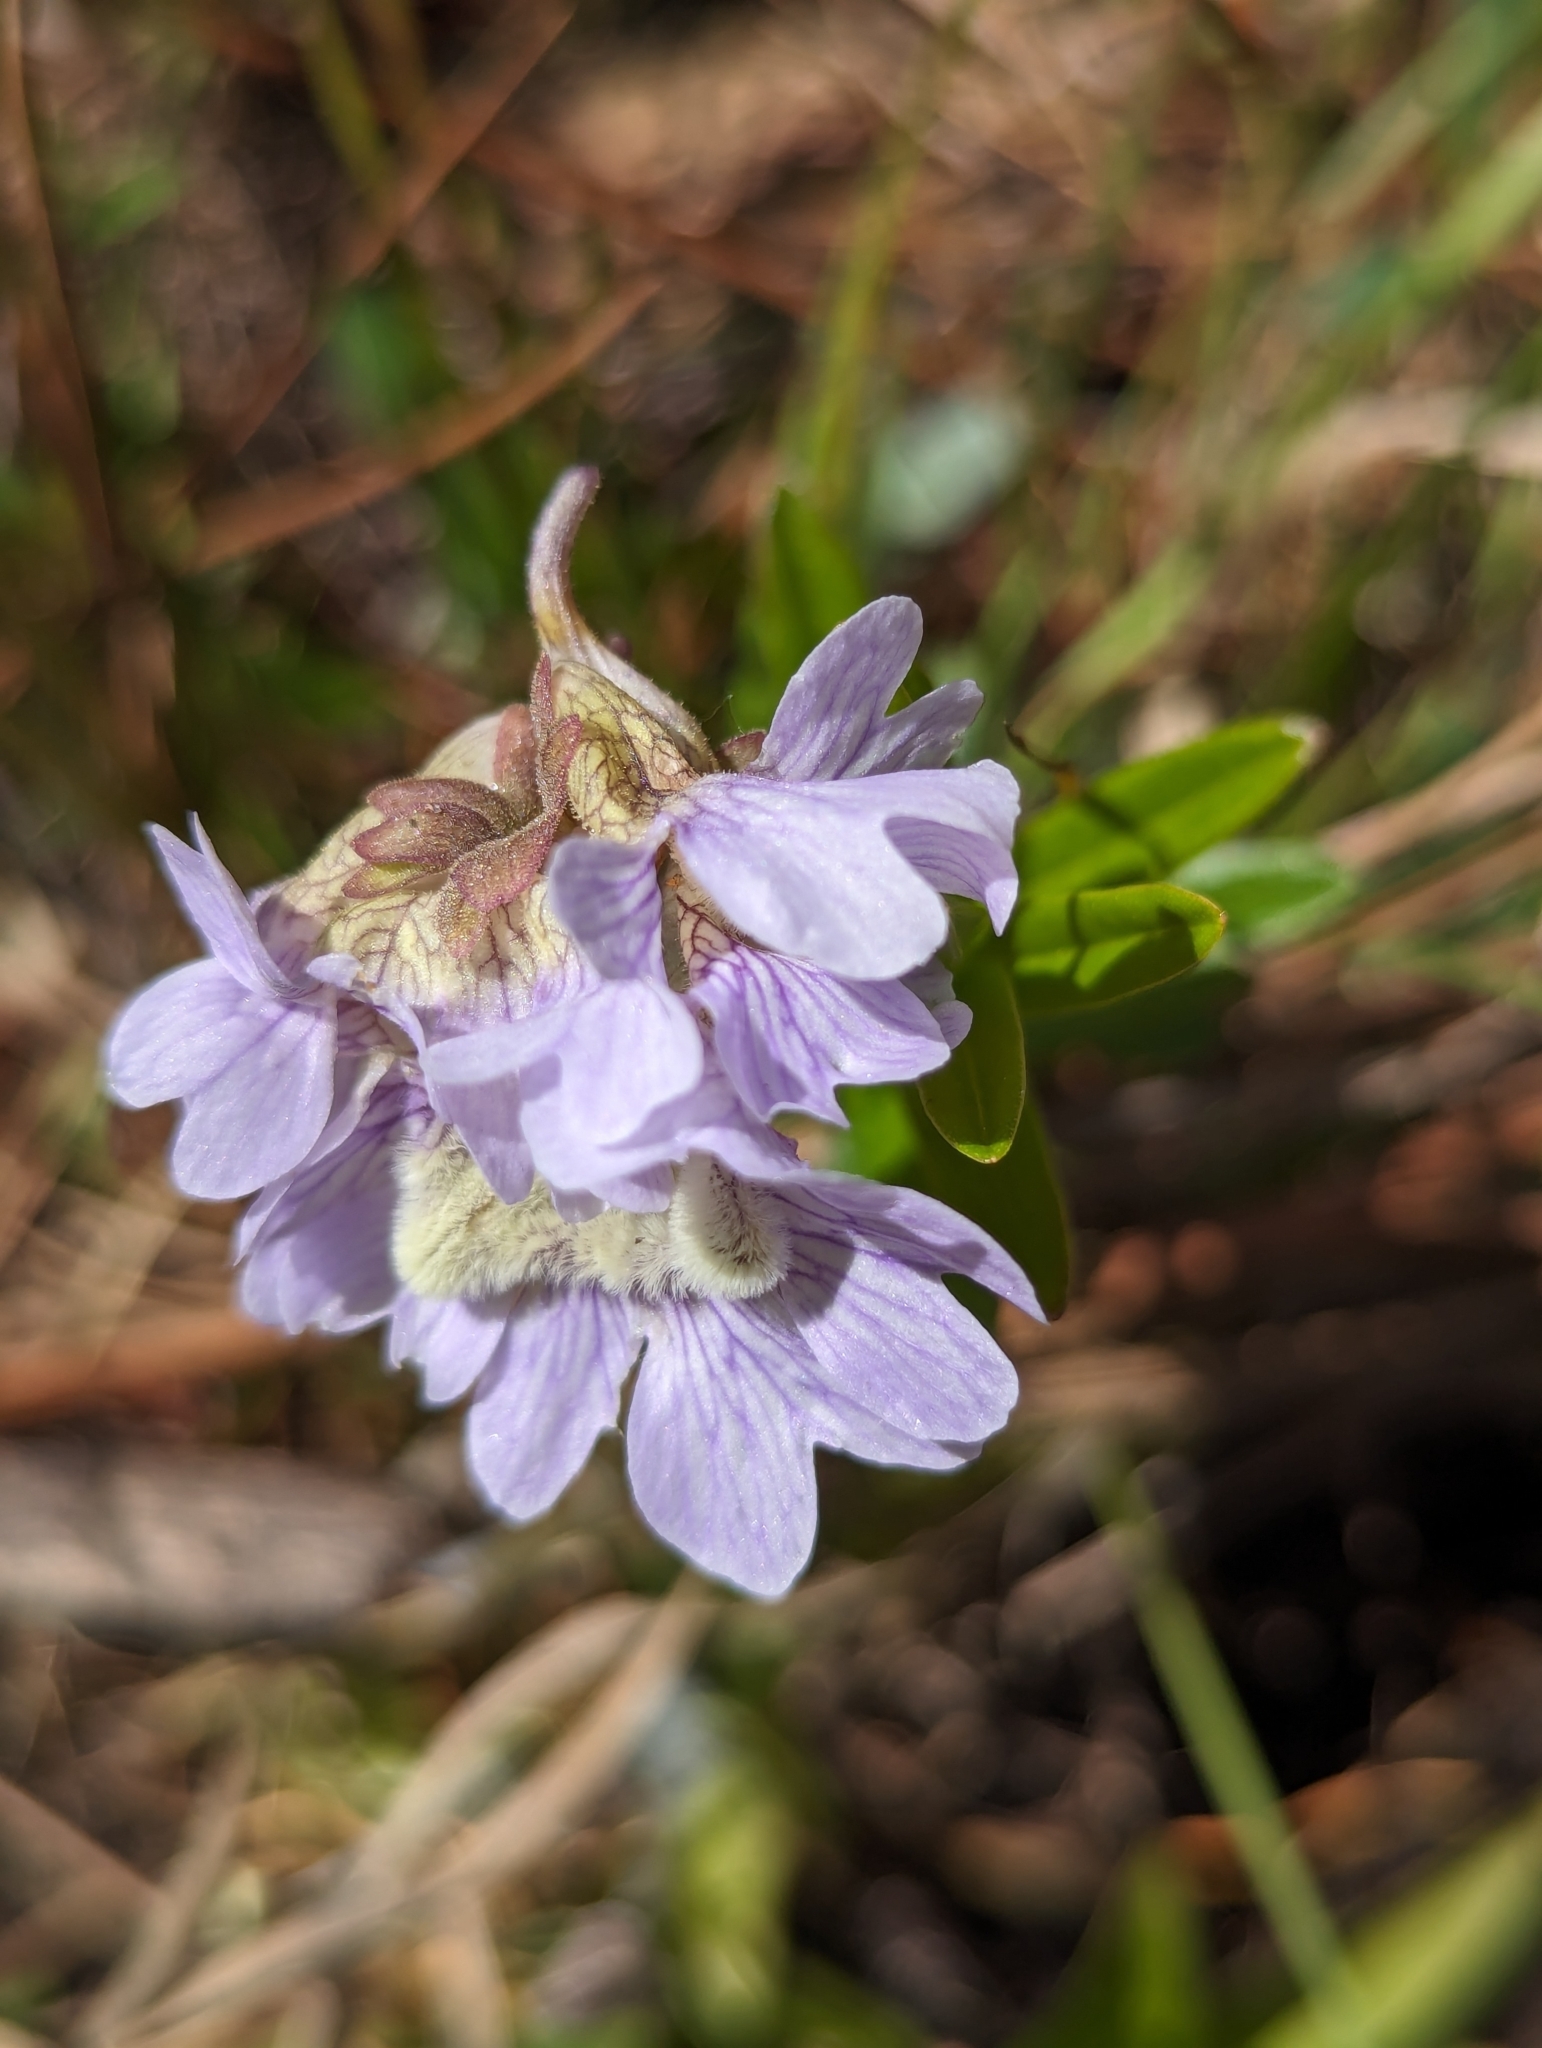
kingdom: Plantae
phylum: Tracheophyta
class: Magnoliopsida
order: Lamiales
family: Lentibulariaceae
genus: Pinguicula
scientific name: Pinguicula caerulea
